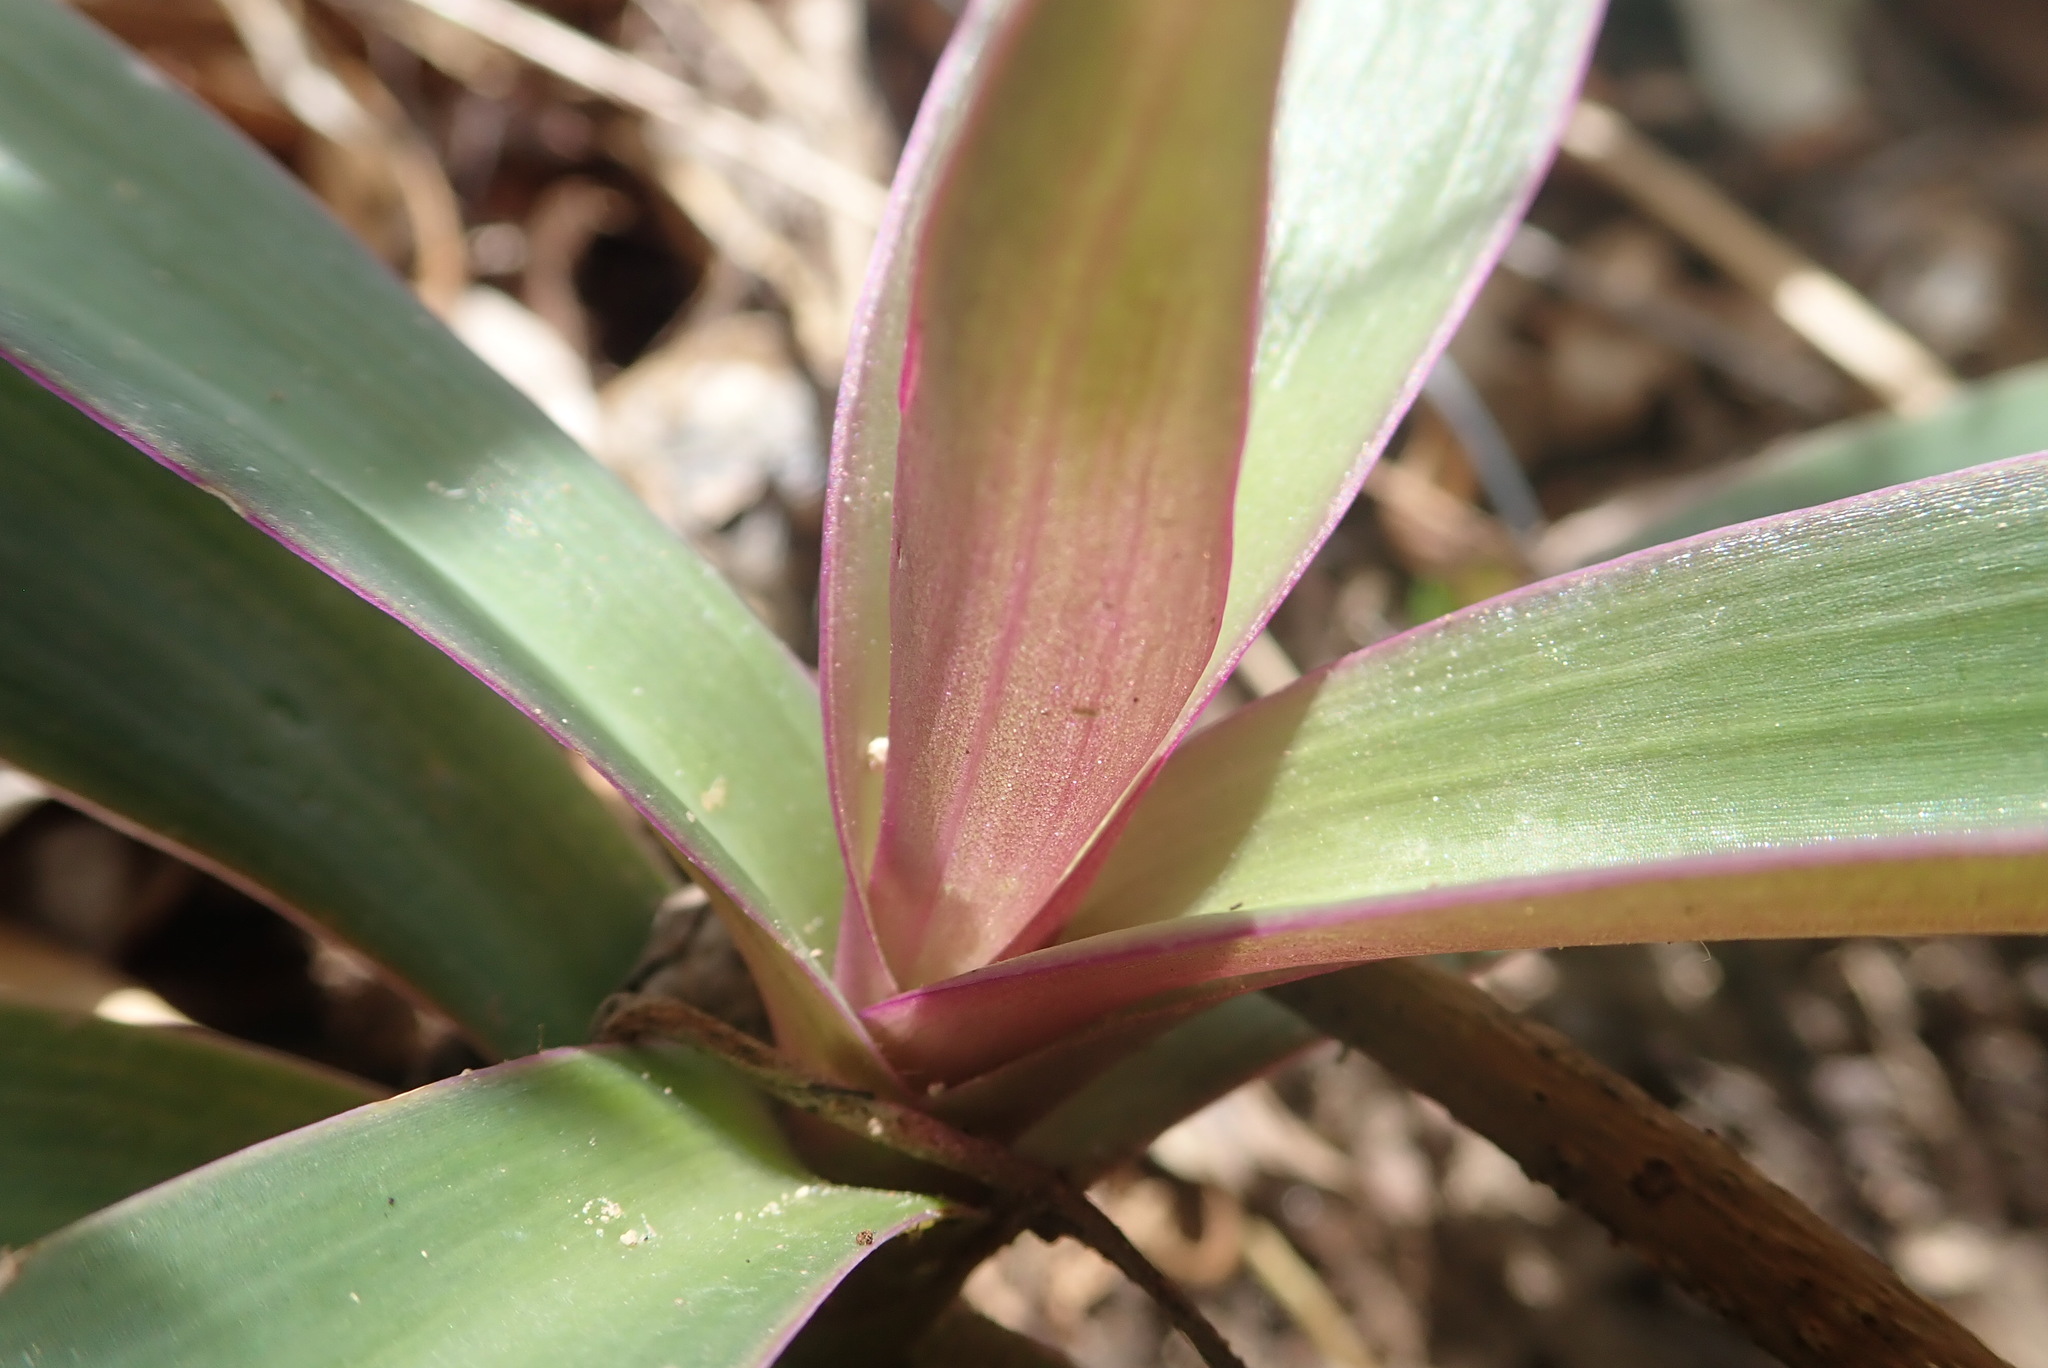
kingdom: Plantae
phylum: Tracheophyta
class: Liliopsida
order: Commelinales
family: Commelinaceae
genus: Tradescantia
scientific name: Tradescantia spathacea
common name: Boatlily
